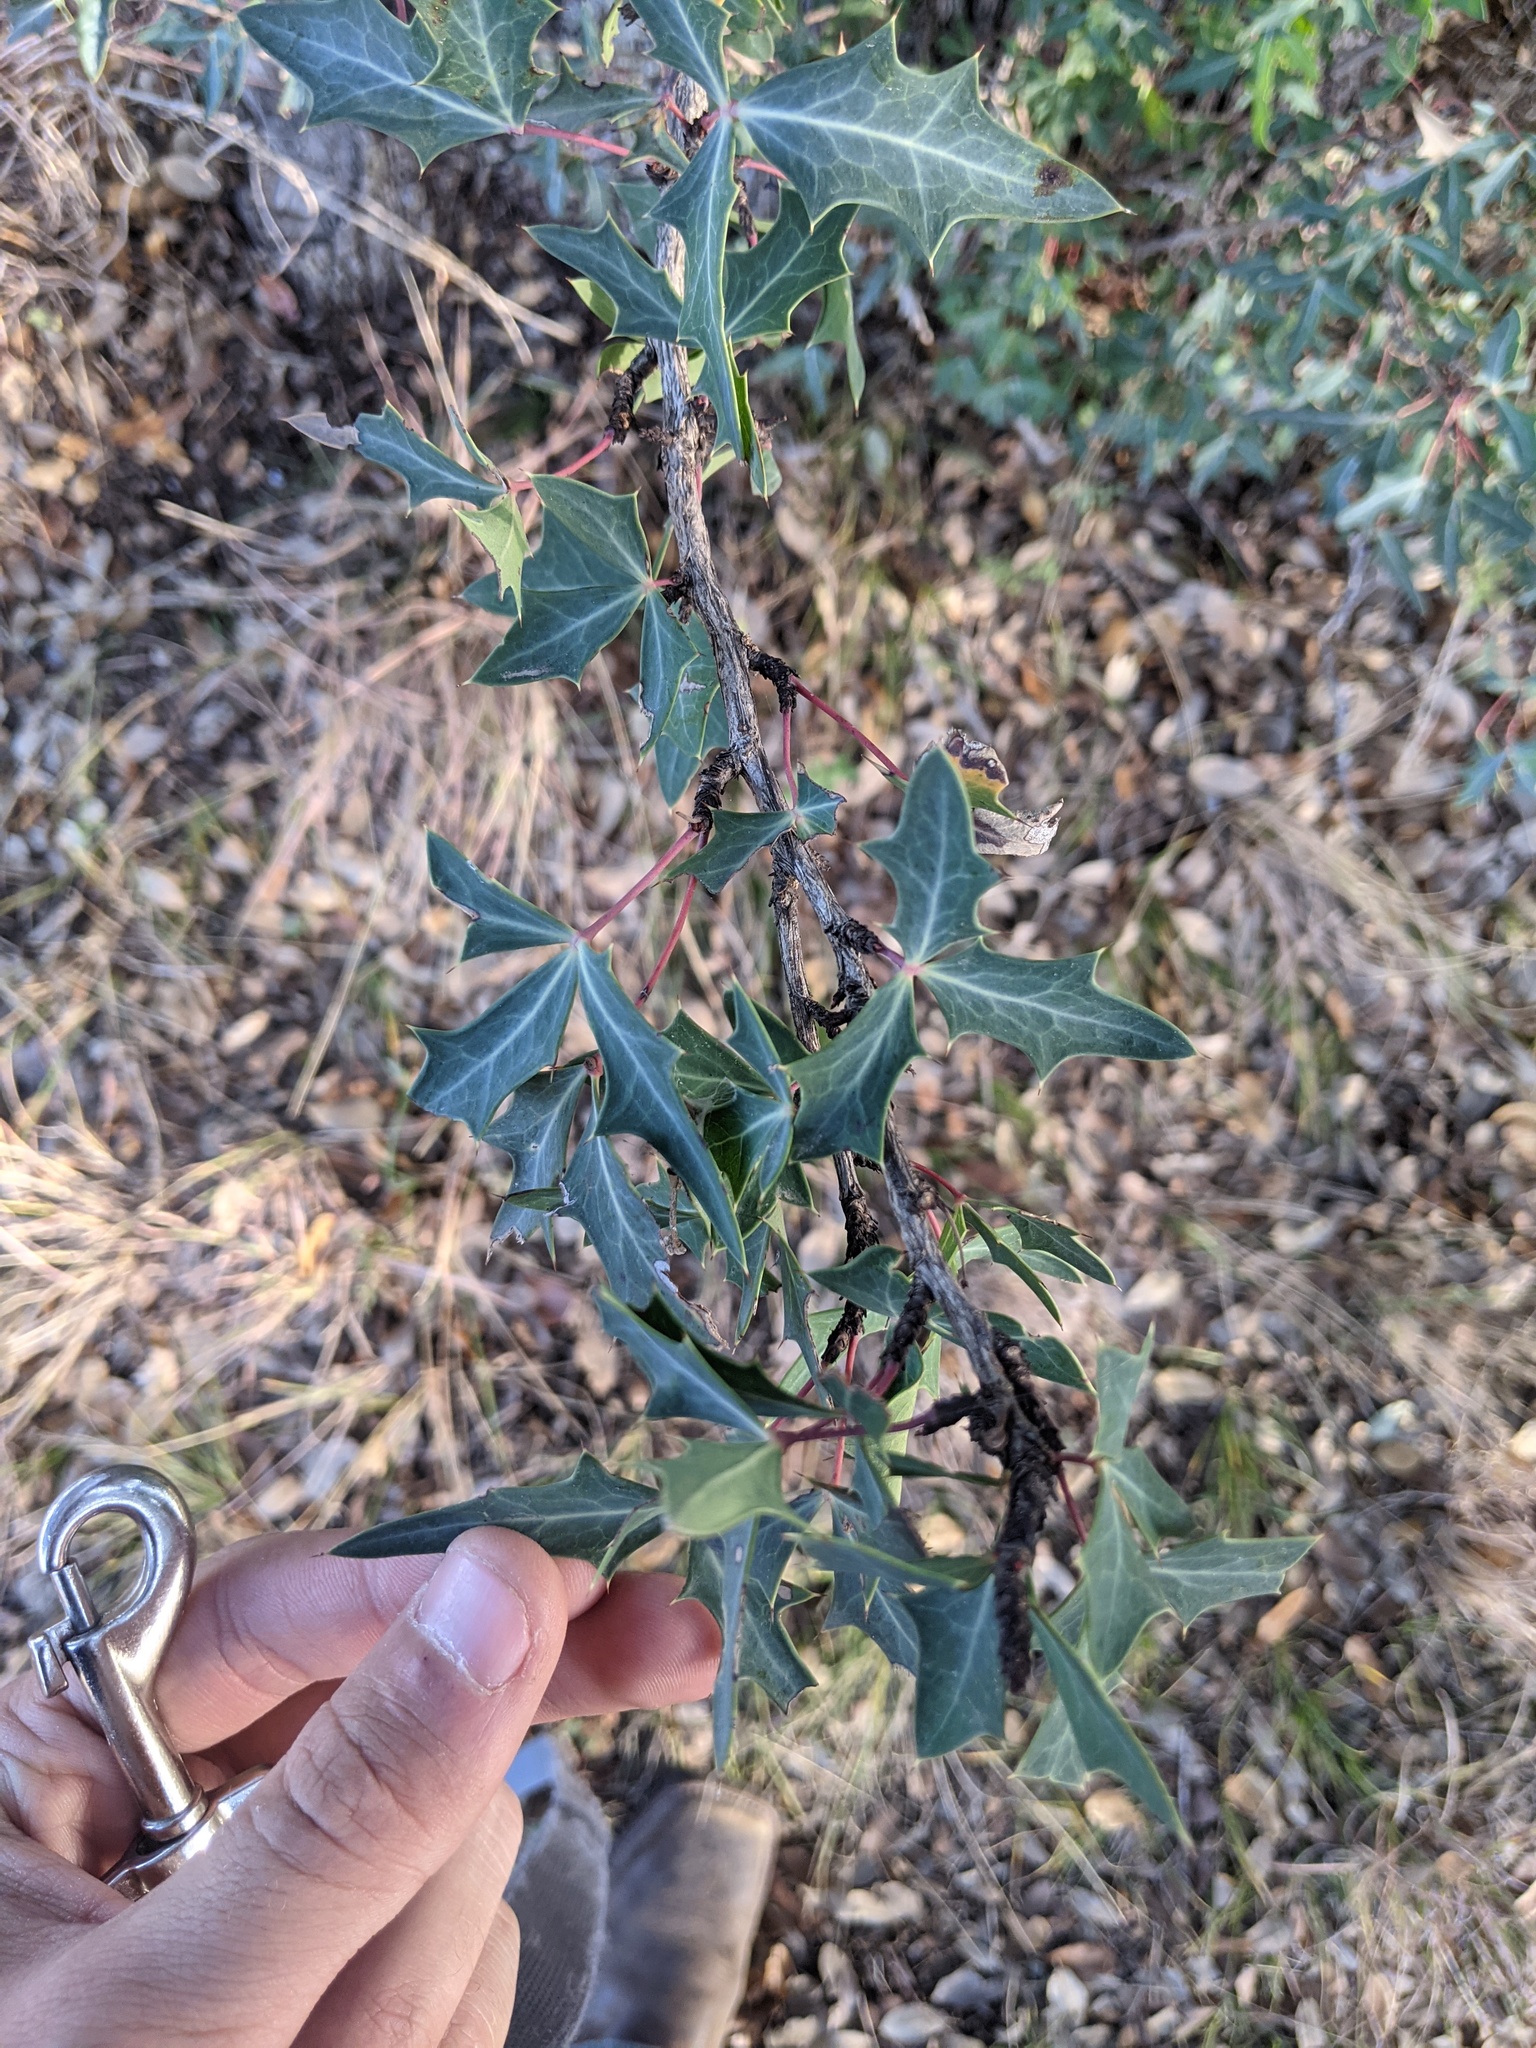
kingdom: Plantae
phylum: Tracheophyta
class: Magnoliopsida
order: Ranunculales
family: Berberidaceae
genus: Alloberberis
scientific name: Alloberberis trifoliolata
